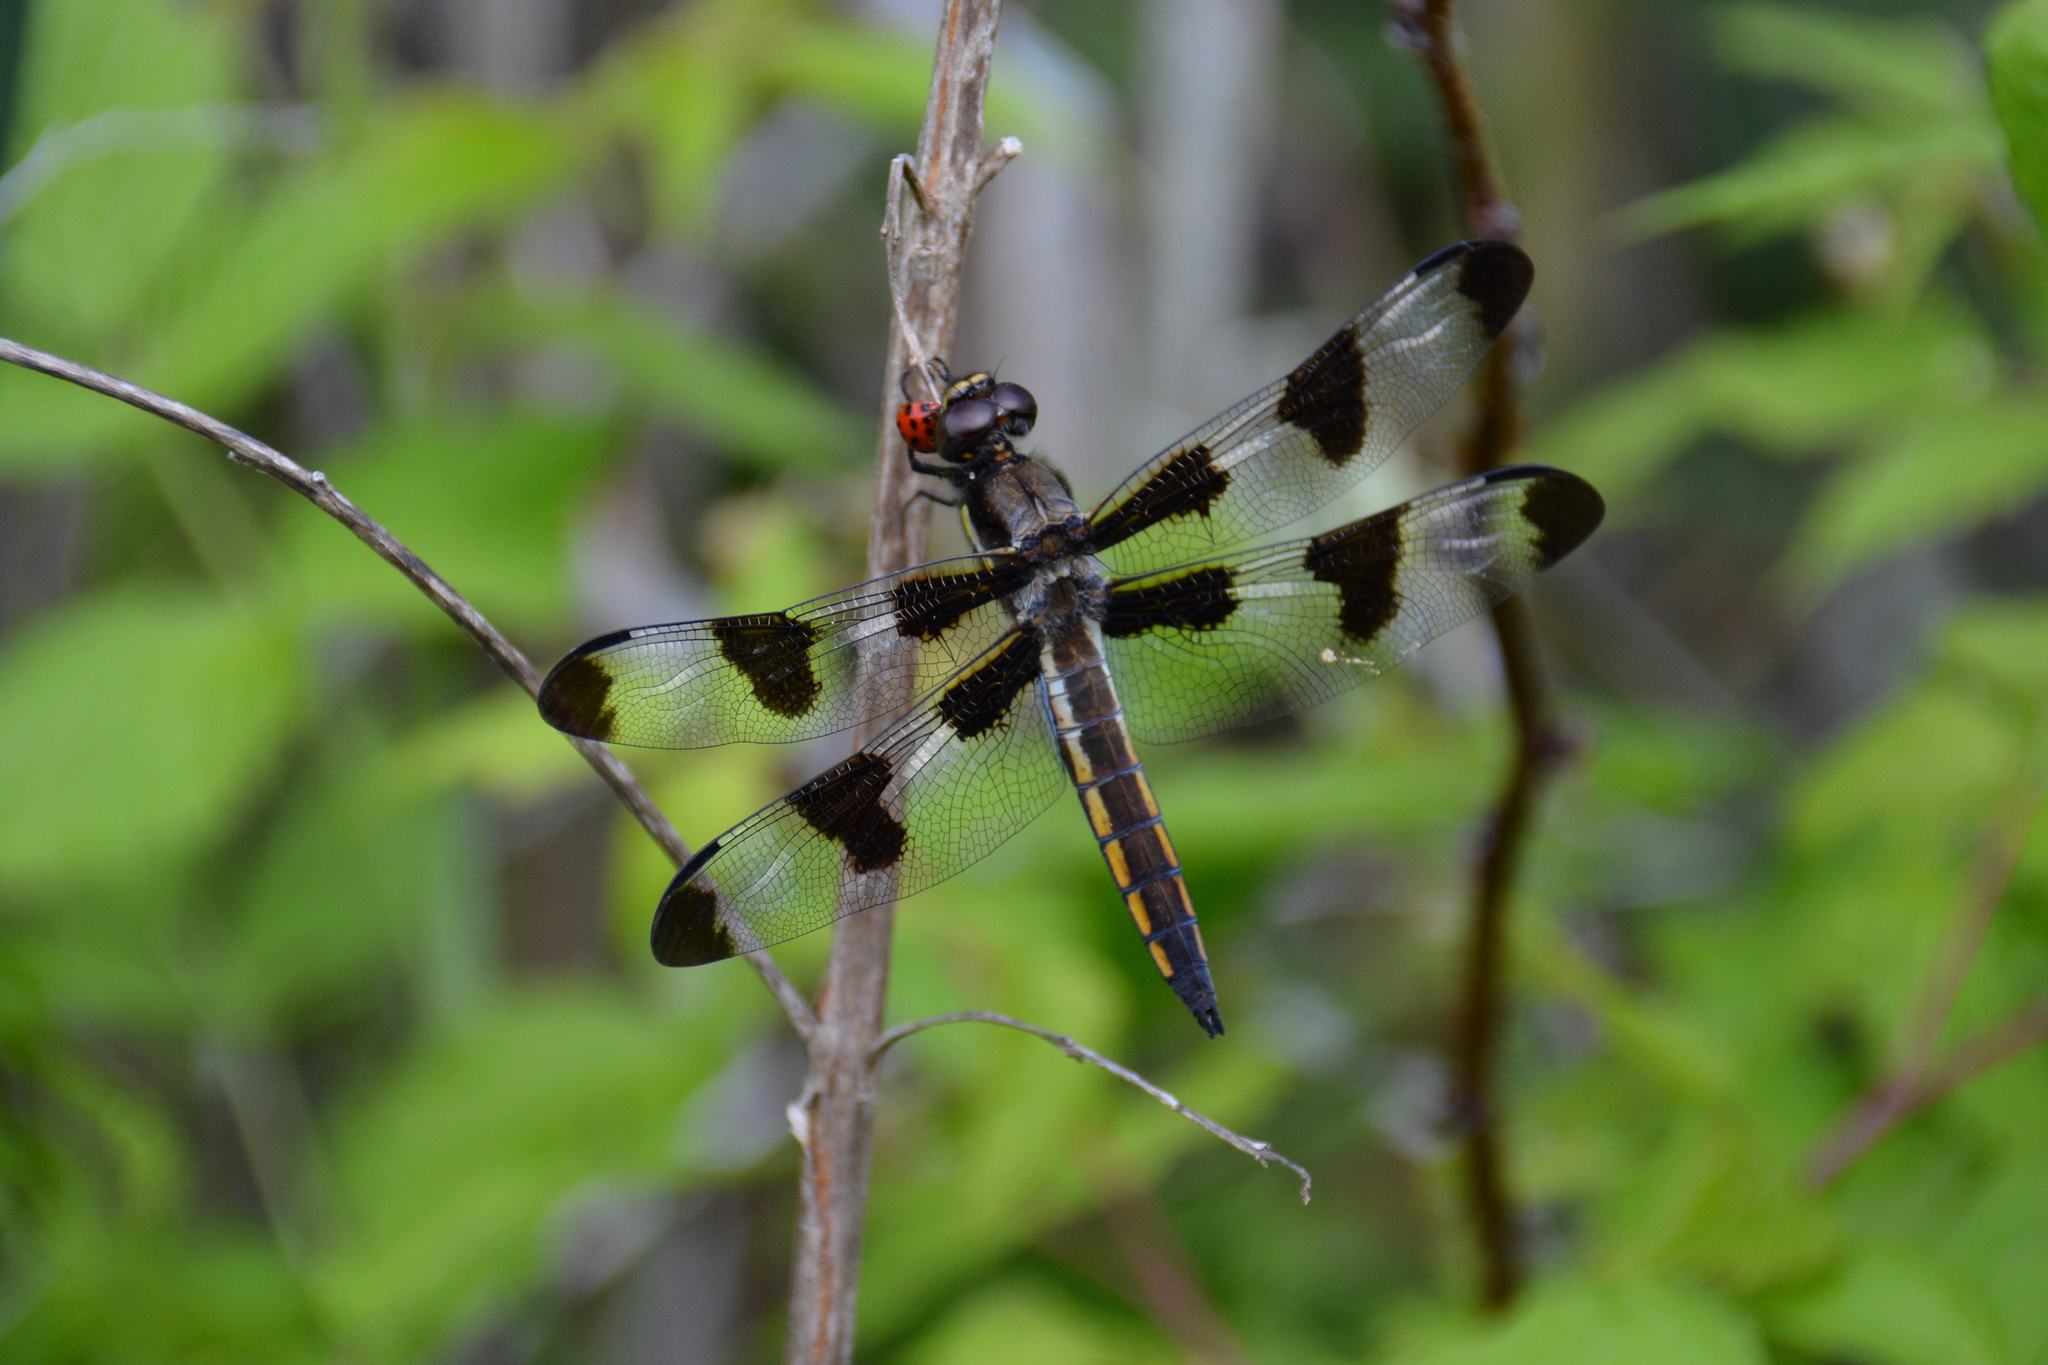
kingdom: Animalia
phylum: Arthropoda
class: Insecta
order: Odonata
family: Libellulidae
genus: Libellula
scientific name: Libellula pulchella
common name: Twelve-spotted skimmer
